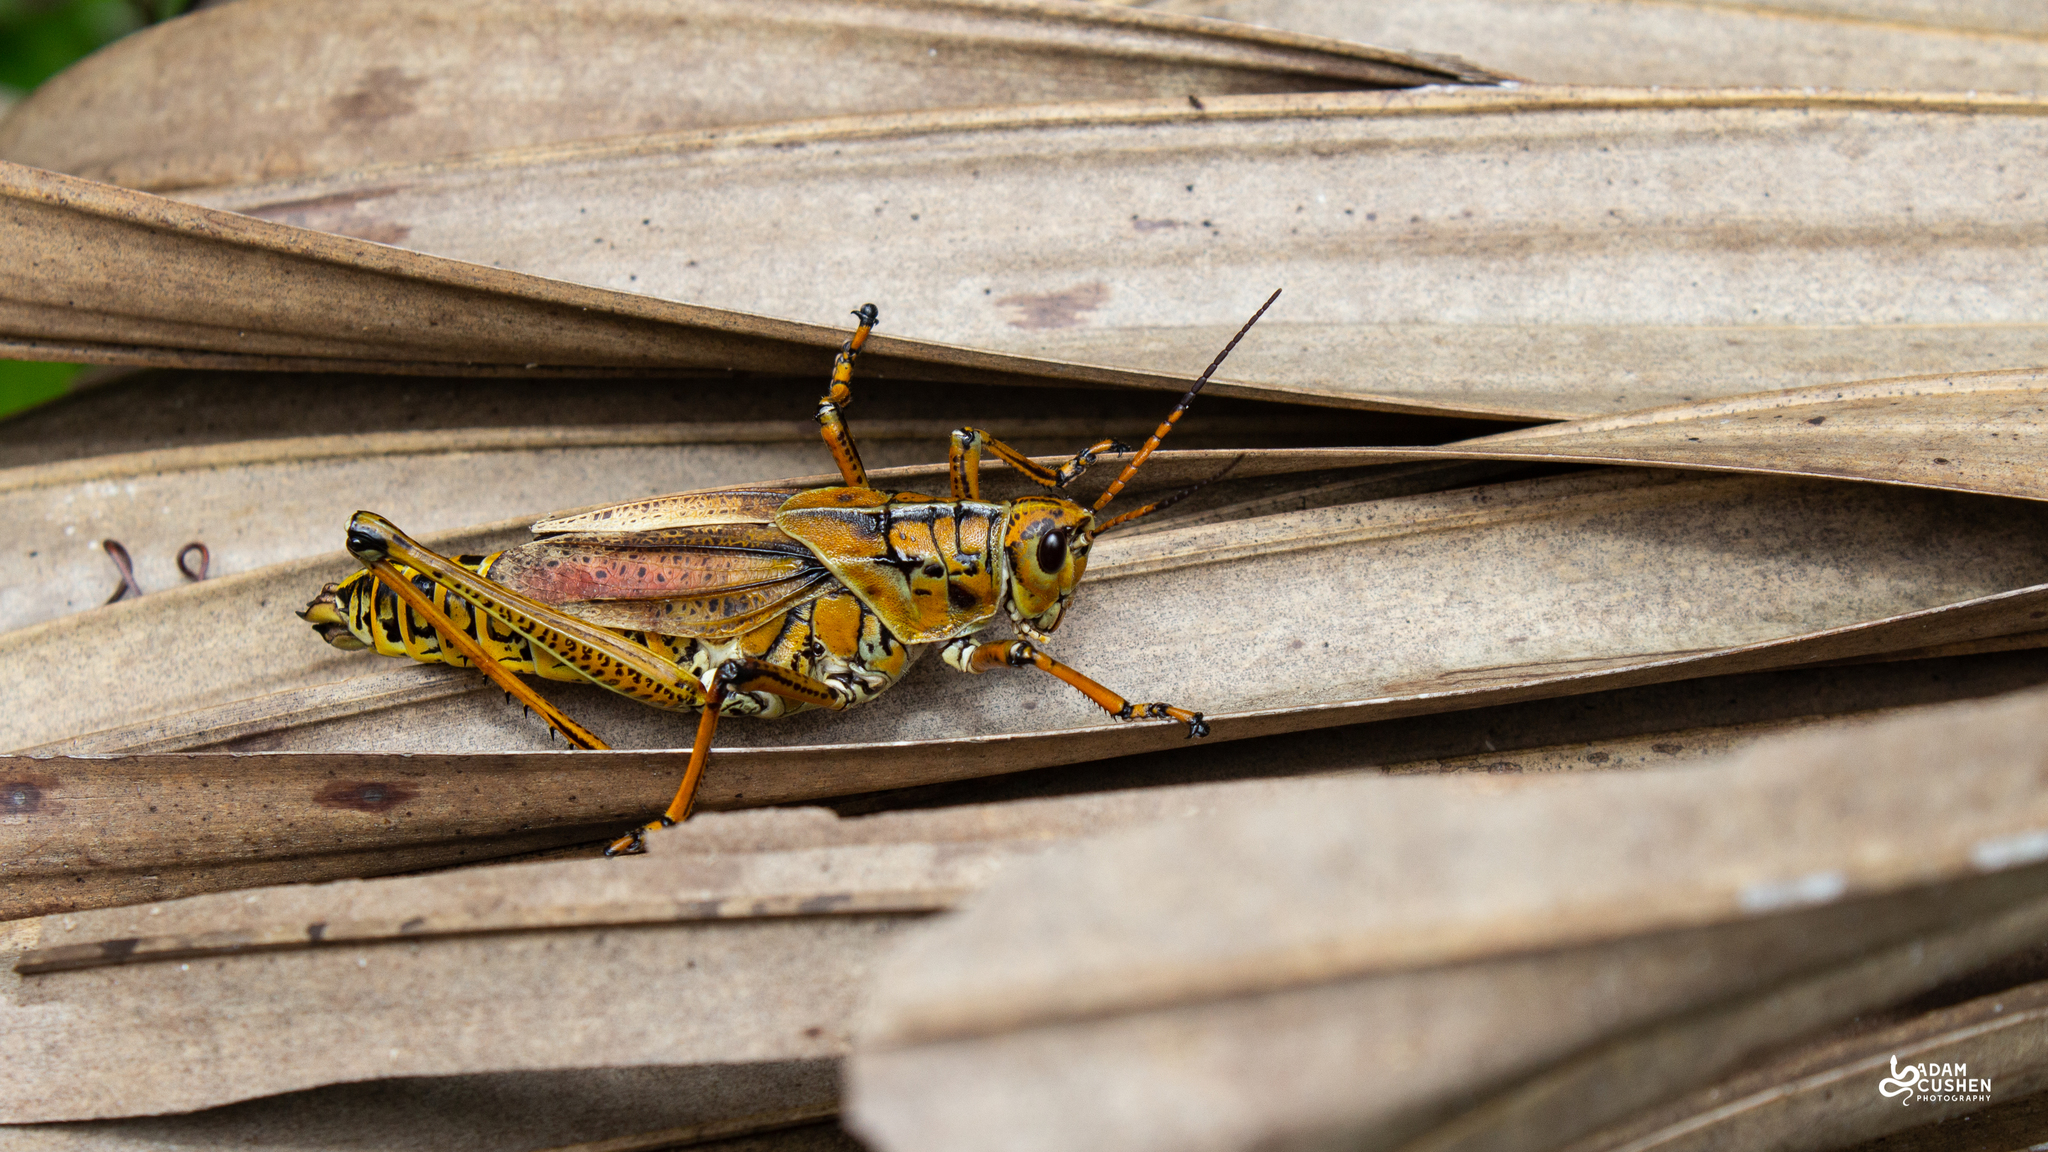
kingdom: Animalia
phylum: Arthropoda
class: Insecta
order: Orthoptera
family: Romaleidae
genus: Romalea
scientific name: Romalea microptera
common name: Eastern lubber grasshopper
